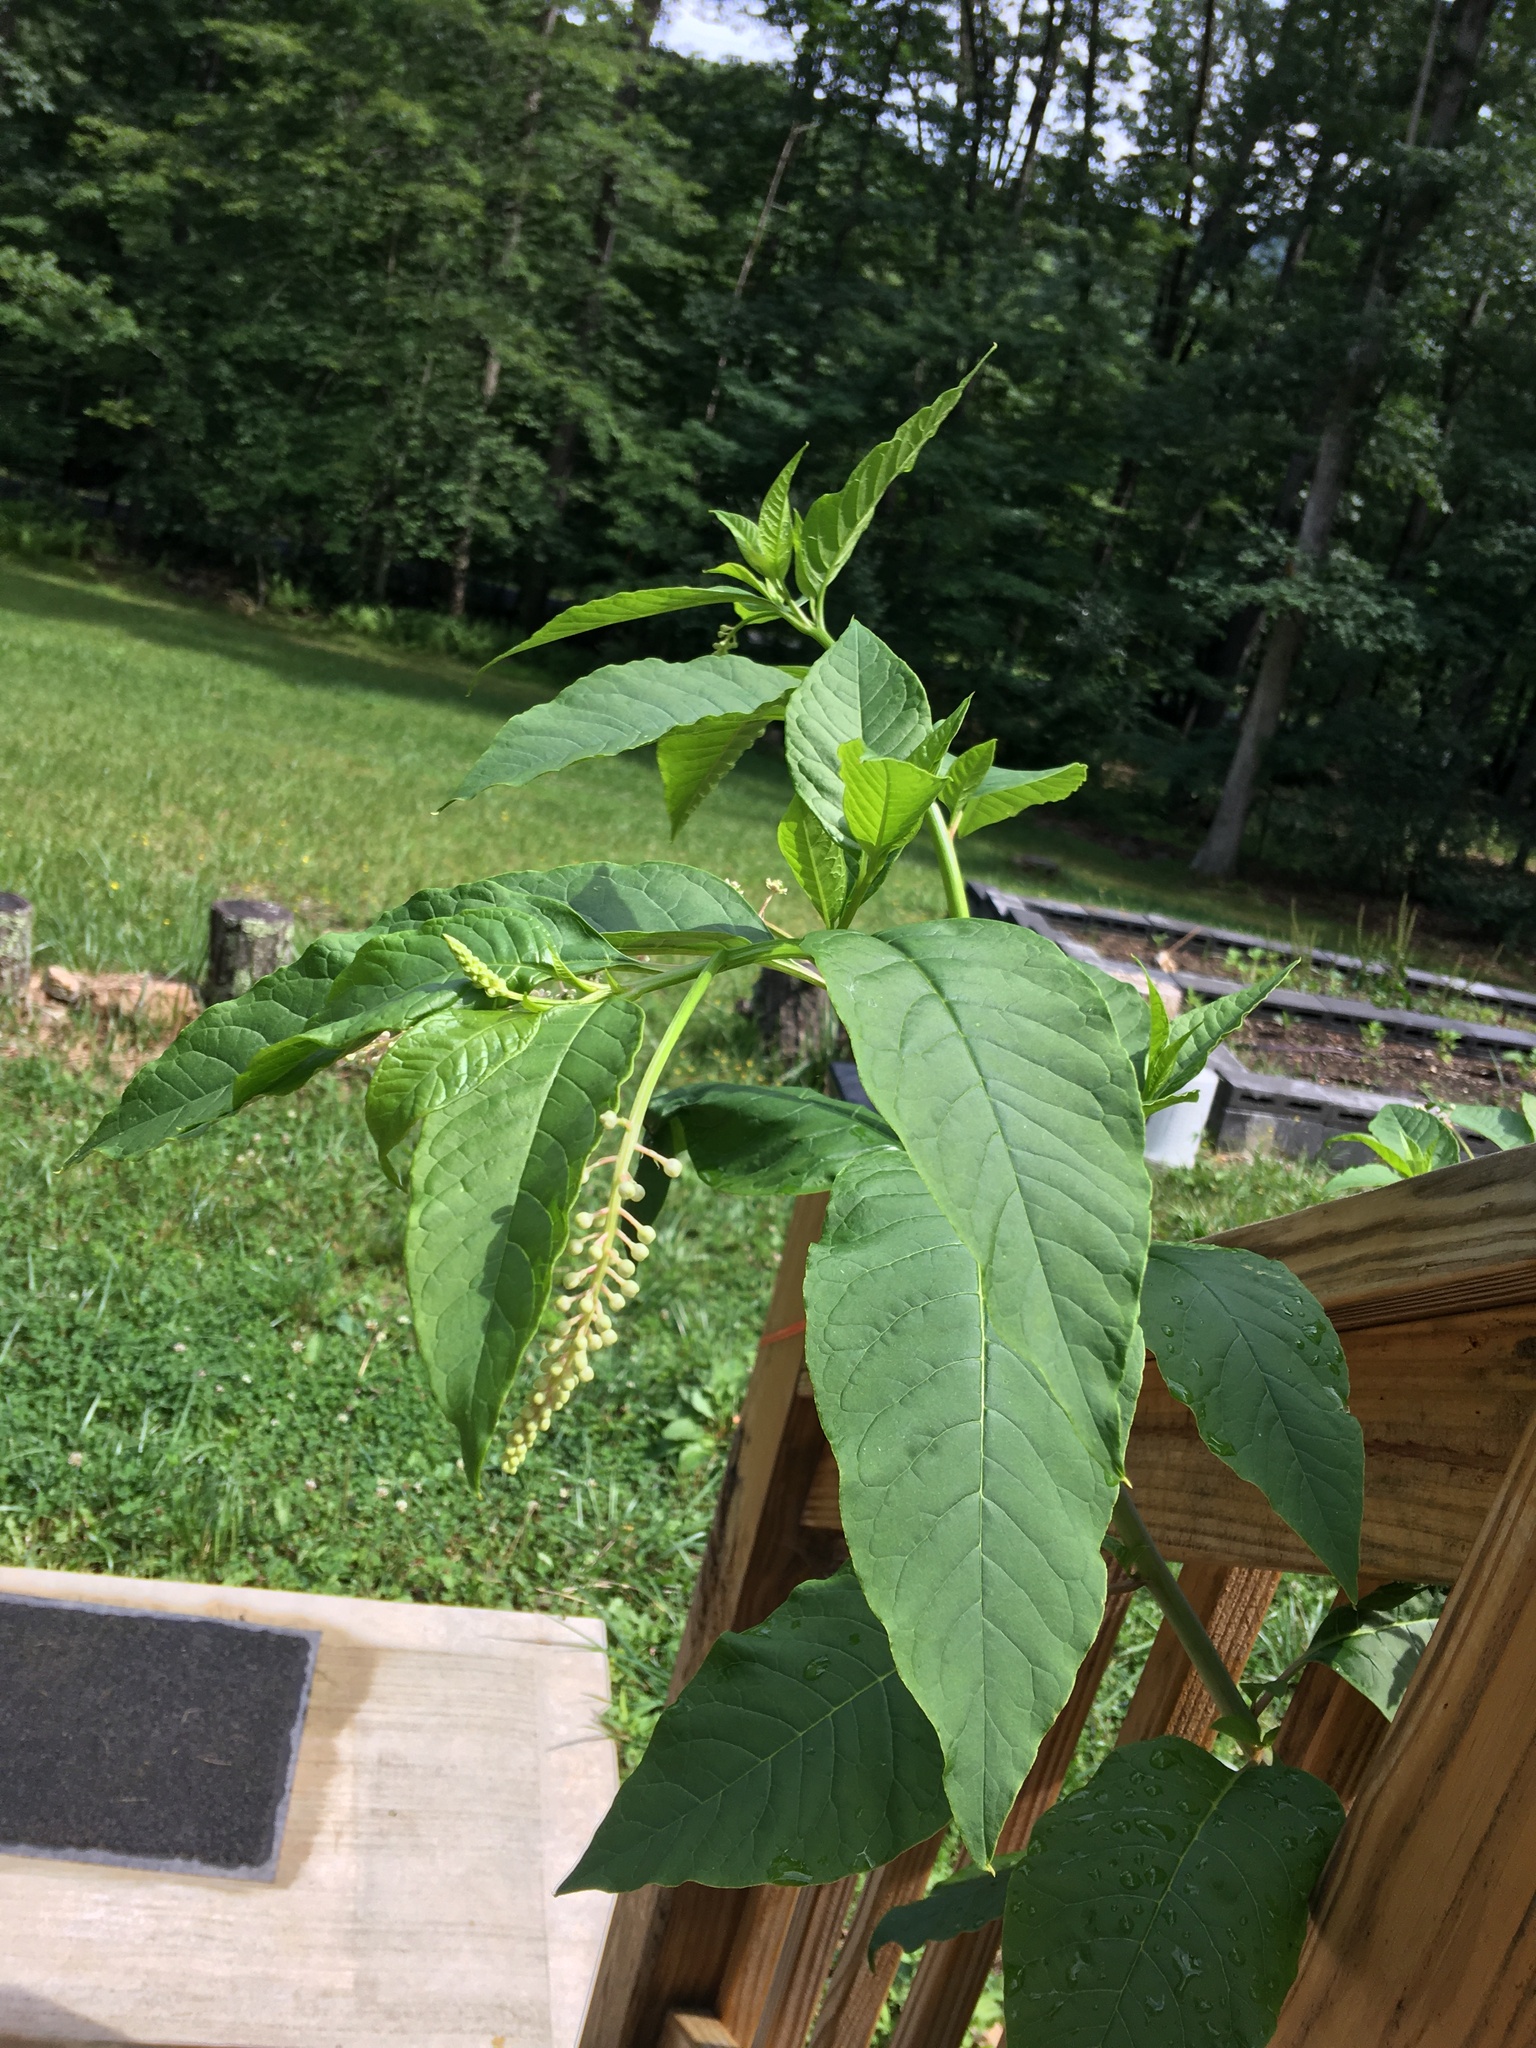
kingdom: Plantae
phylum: Tracheophyta
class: Magnoliopsida
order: Caryophyllales
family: Phytolaccaceae
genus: Phytolacca
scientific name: Phytolacca americana
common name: American pokeweed
